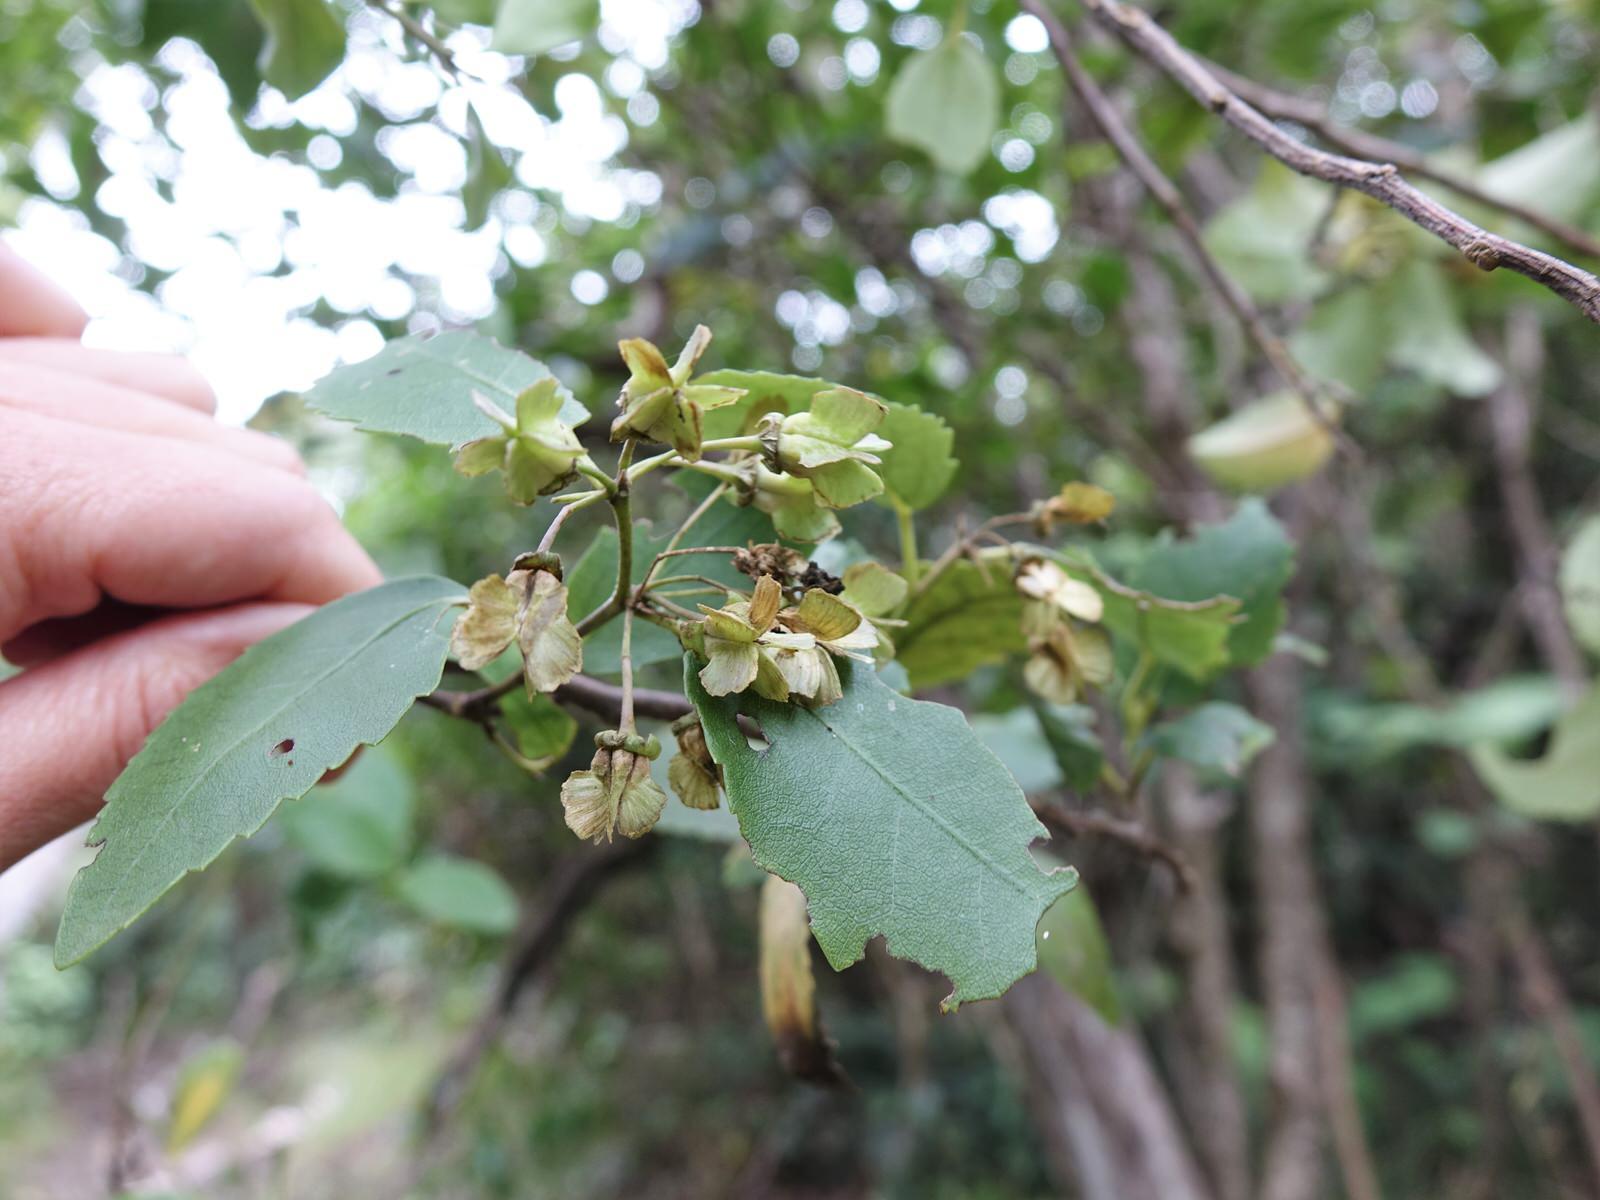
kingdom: Plantae
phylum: Tracheophyta
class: Magnoliopsida
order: Malvales
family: Malvaceae
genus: Hoheria
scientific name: Hoheria populnea
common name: Lacebark
